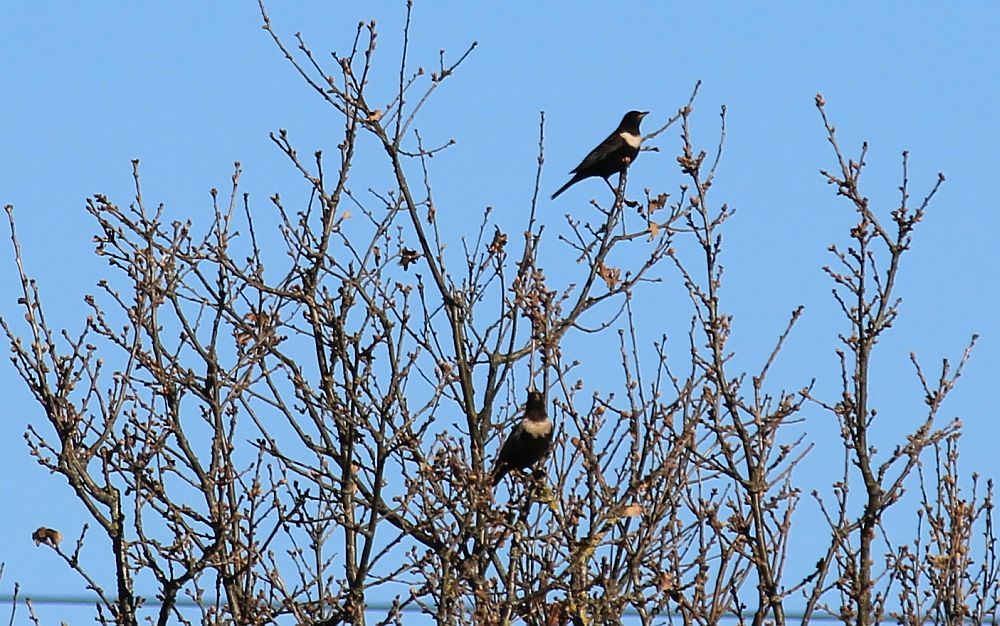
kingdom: Animalia
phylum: Chordata
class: Aves
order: Passeriformes
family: Turdidae
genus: Turdus
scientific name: Turdus torquatus
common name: Ring ouzel
